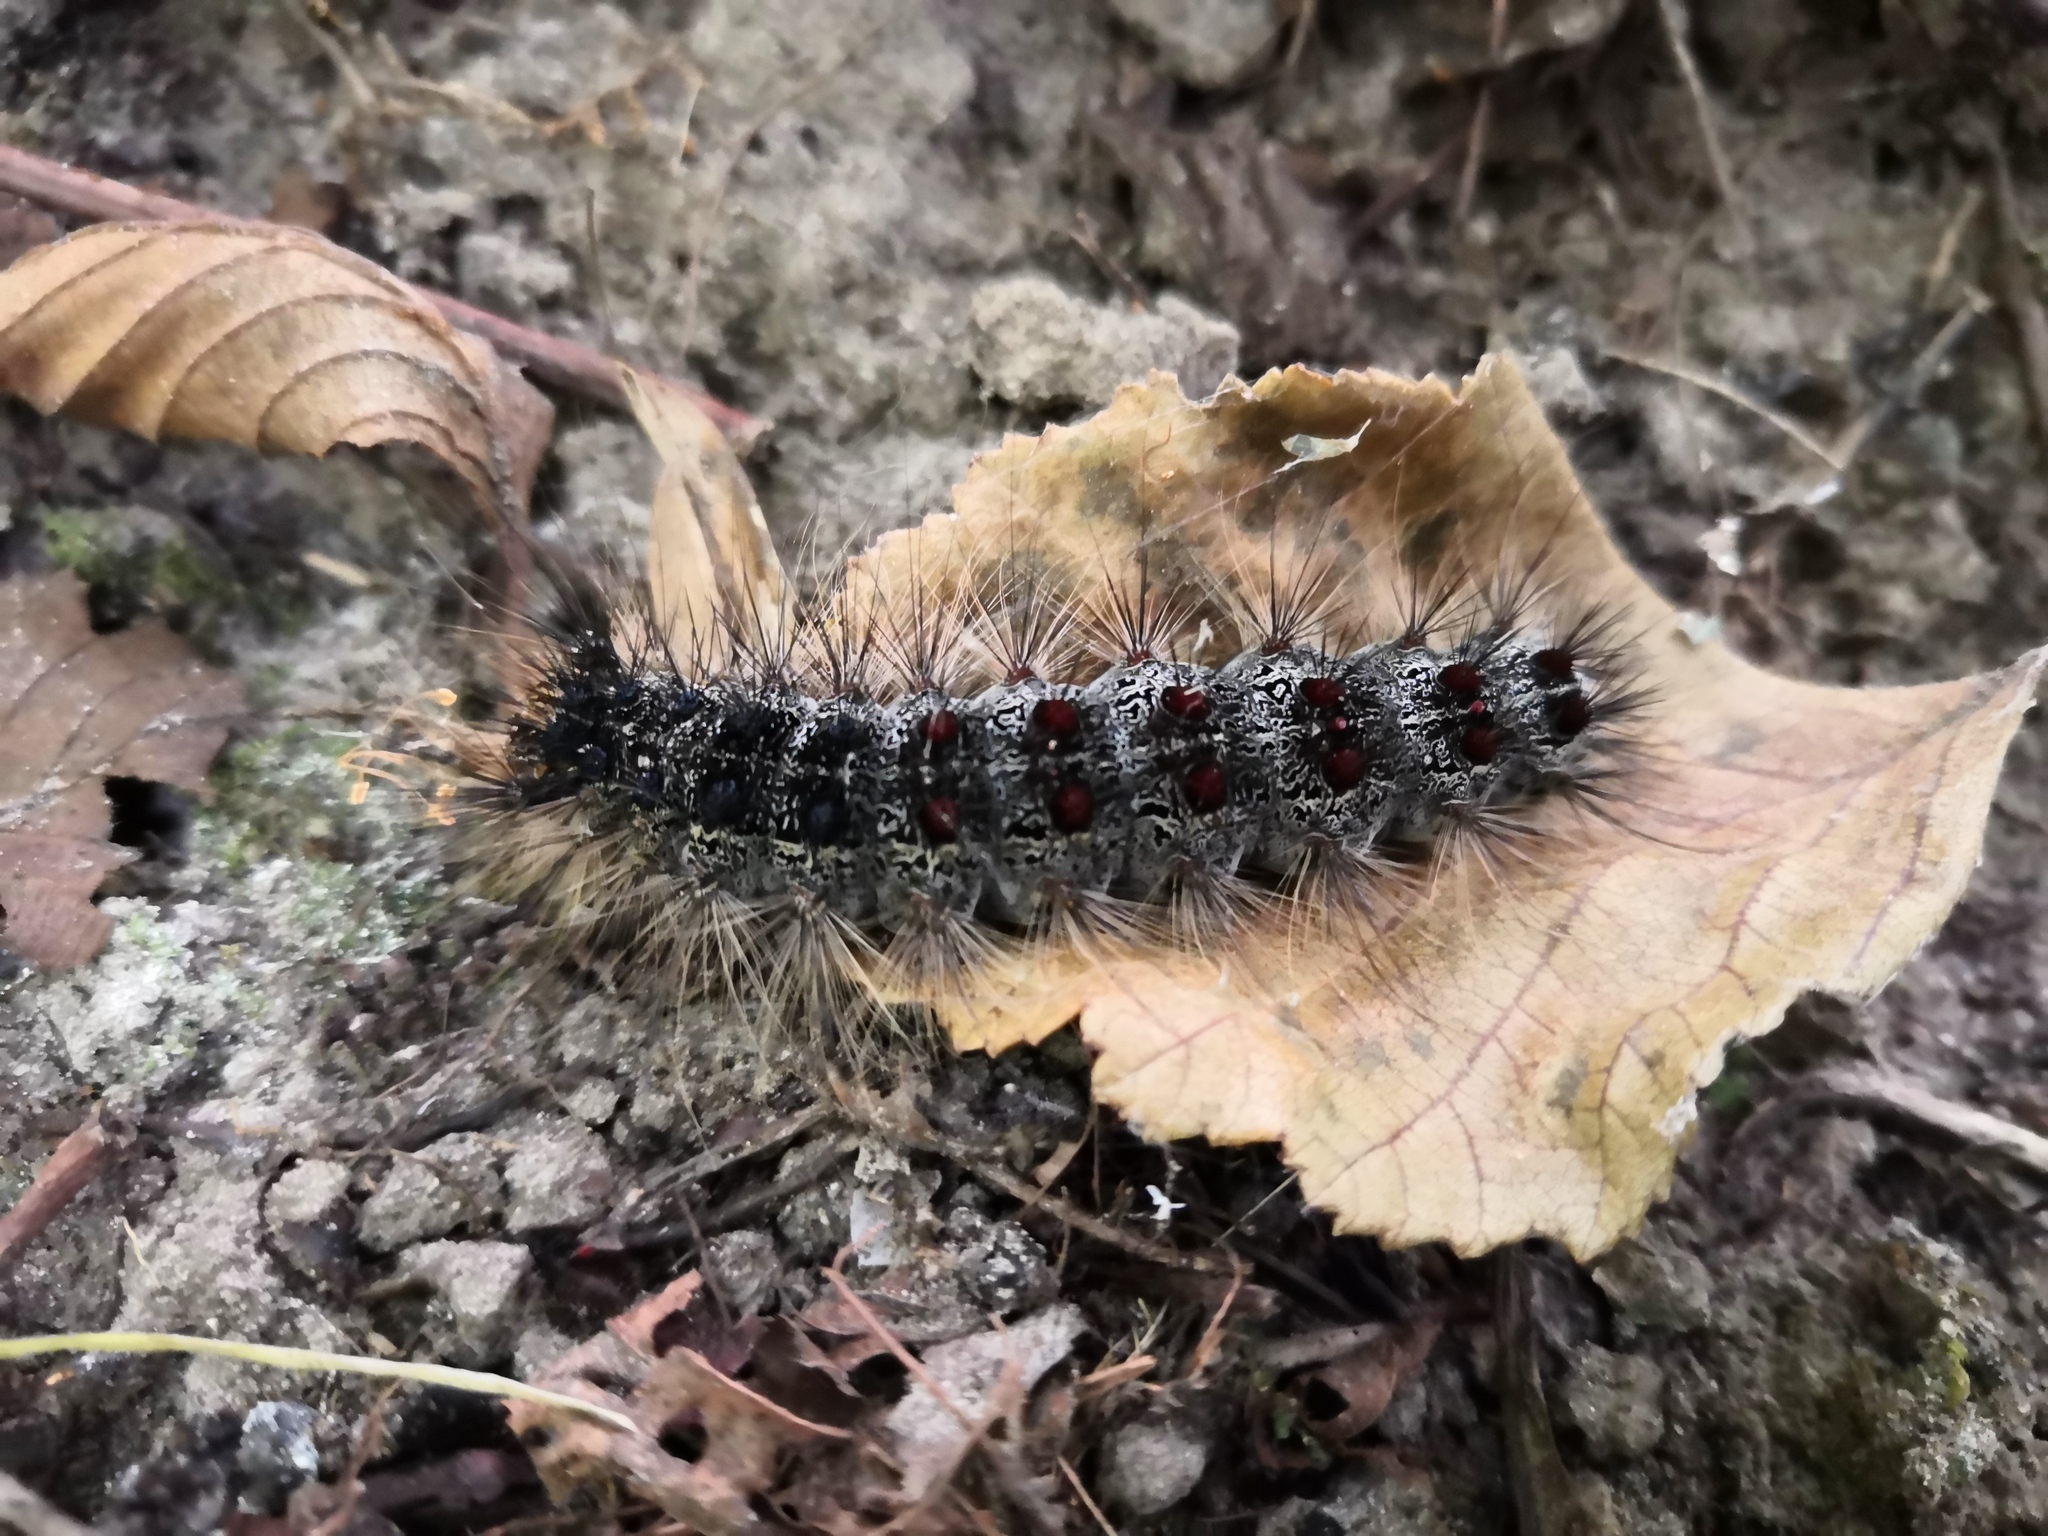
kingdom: Animalia
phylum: Arthropoda
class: Insecta
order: Lepidoptera
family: Erebidae
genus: Lymantria
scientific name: Lymantria dispar
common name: Gypsy moth
